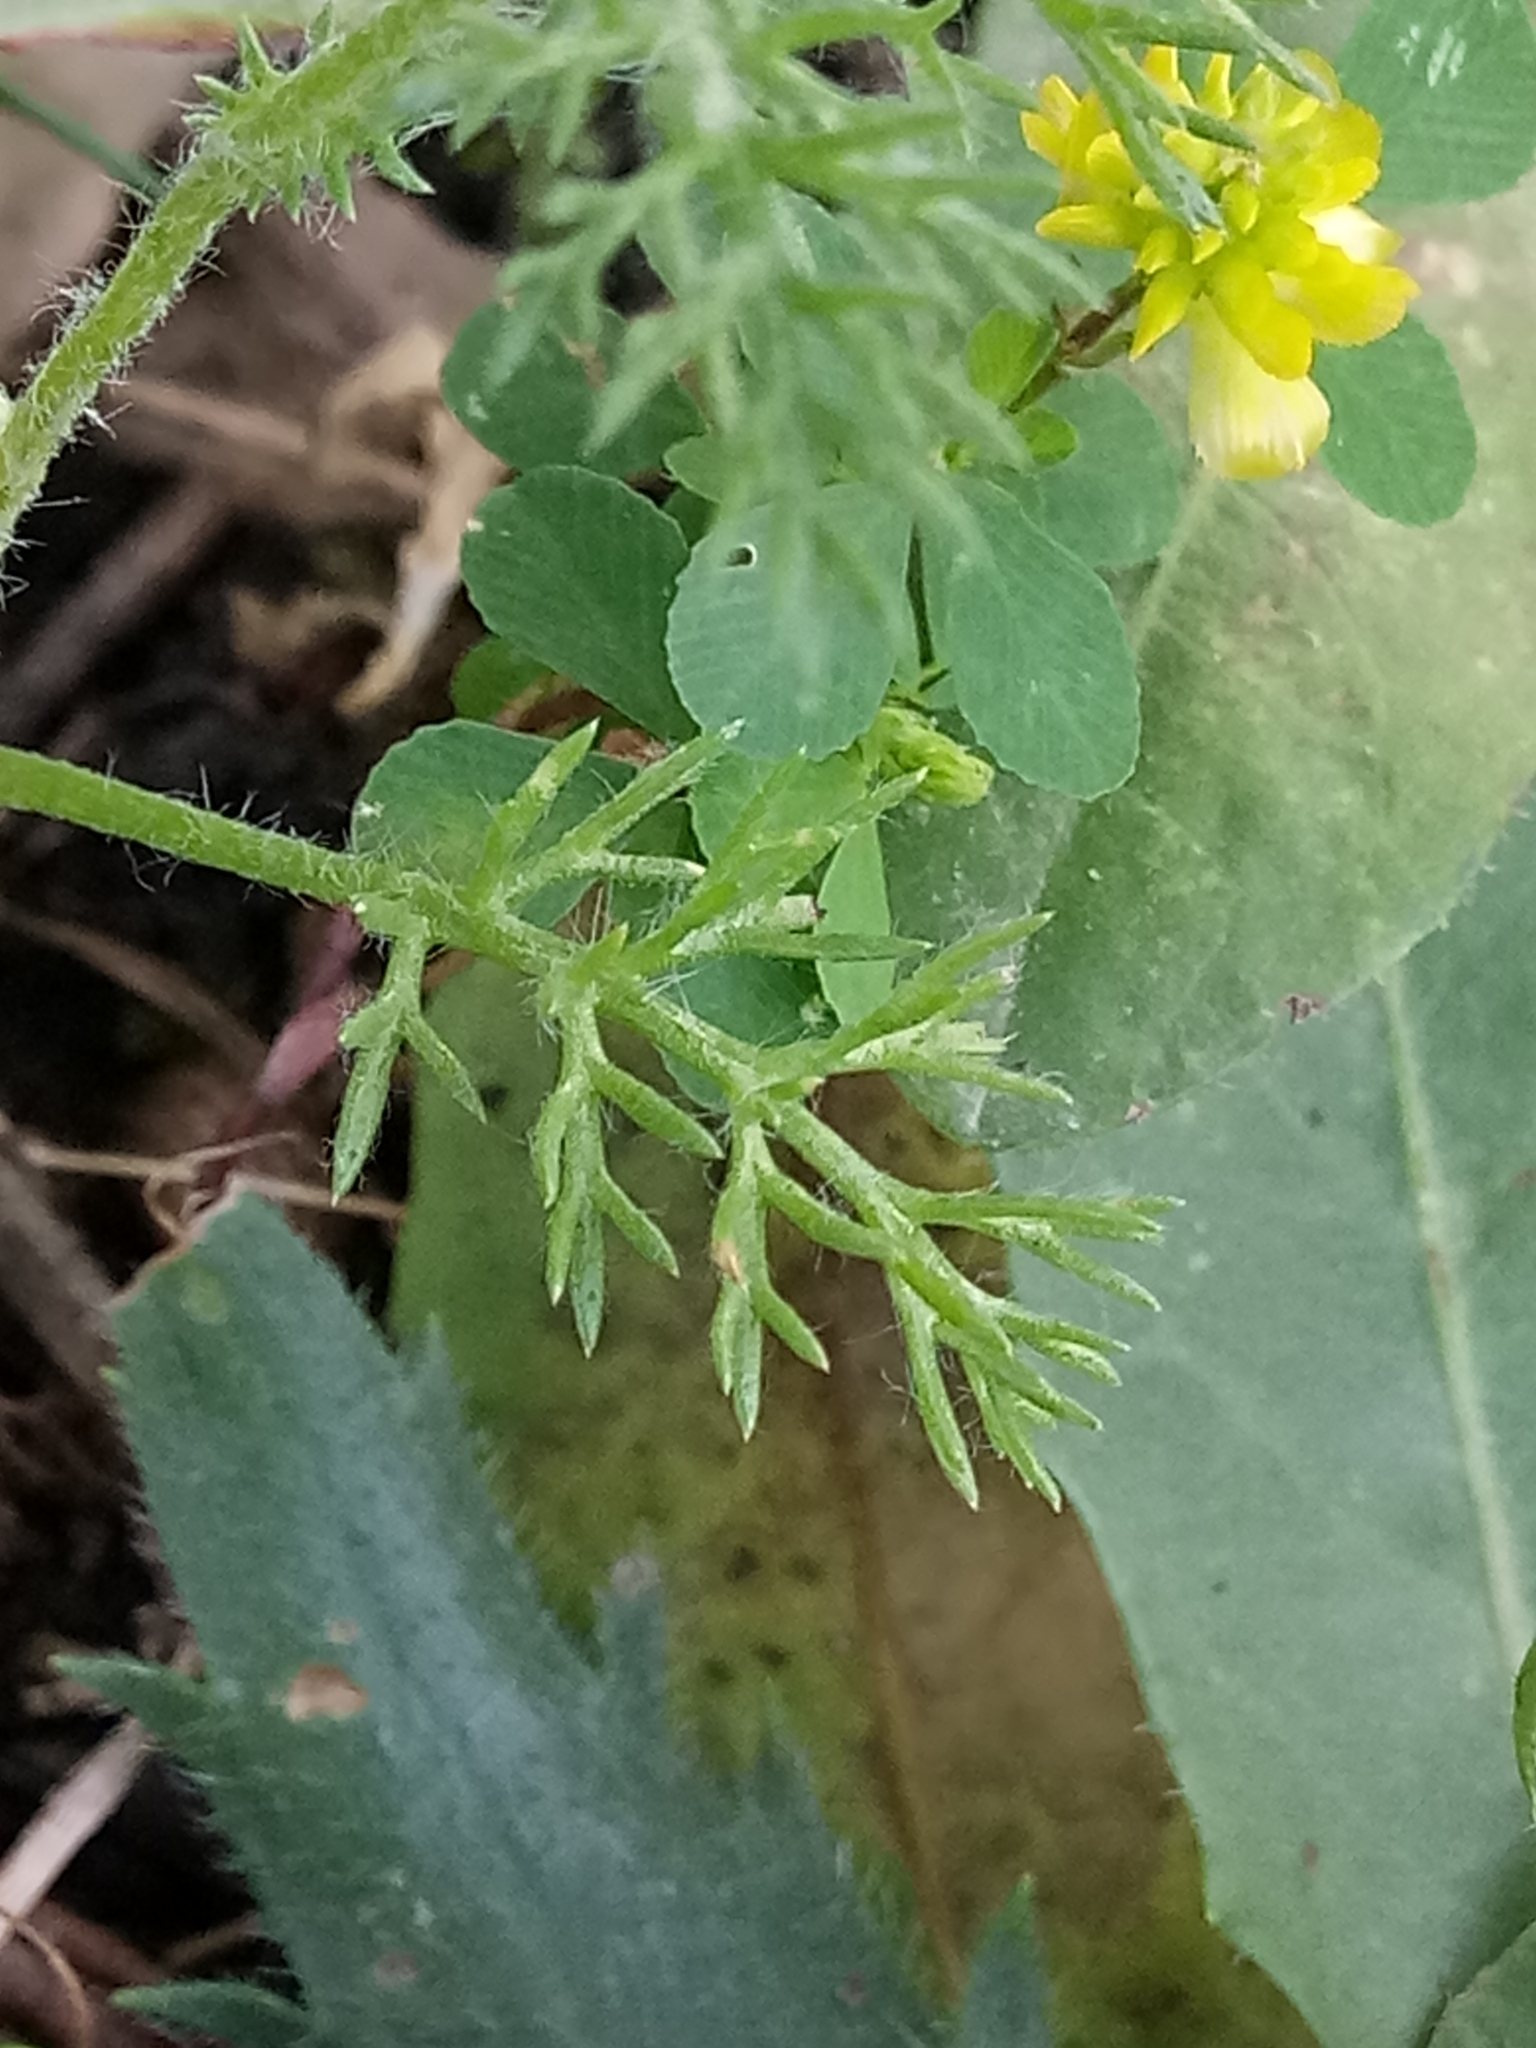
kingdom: Plantae
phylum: Tracheophyta
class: Magnoliopsida
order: Asterales
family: Asteraceae
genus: Anacyclus
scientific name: Anacyclus clavatus
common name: Whitebuttons
